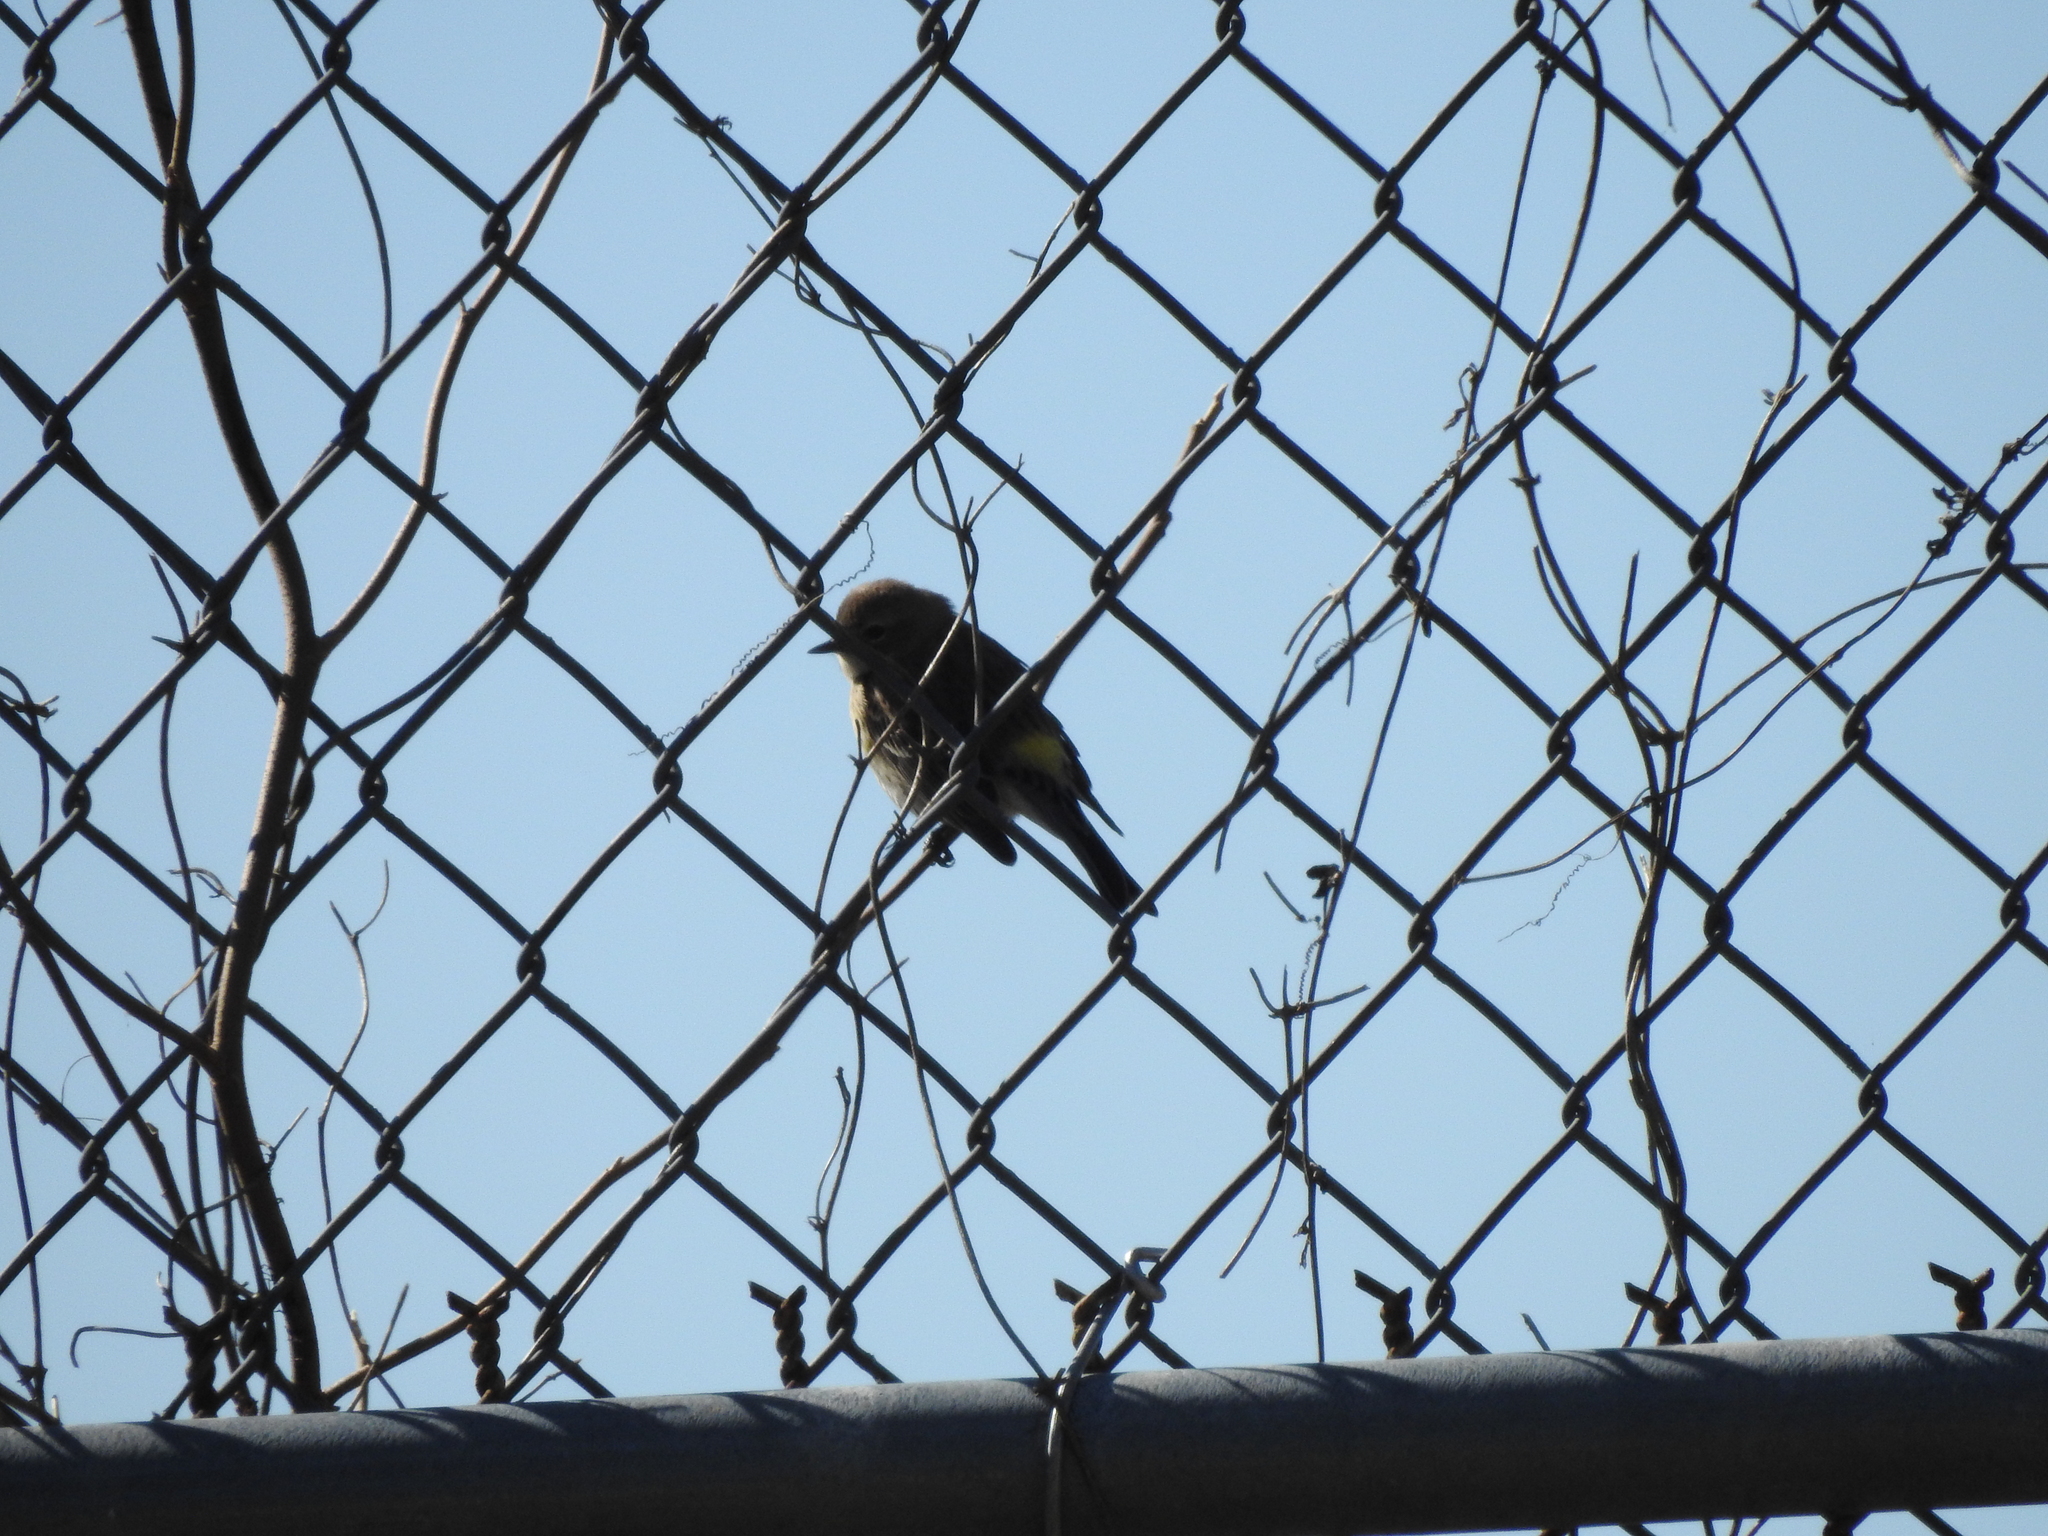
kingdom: Animalia
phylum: Chordata
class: Aves
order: Passeriformes
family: Parulidae
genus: Setophaga
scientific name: Setophaga coronata
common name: Myrtle warbler
